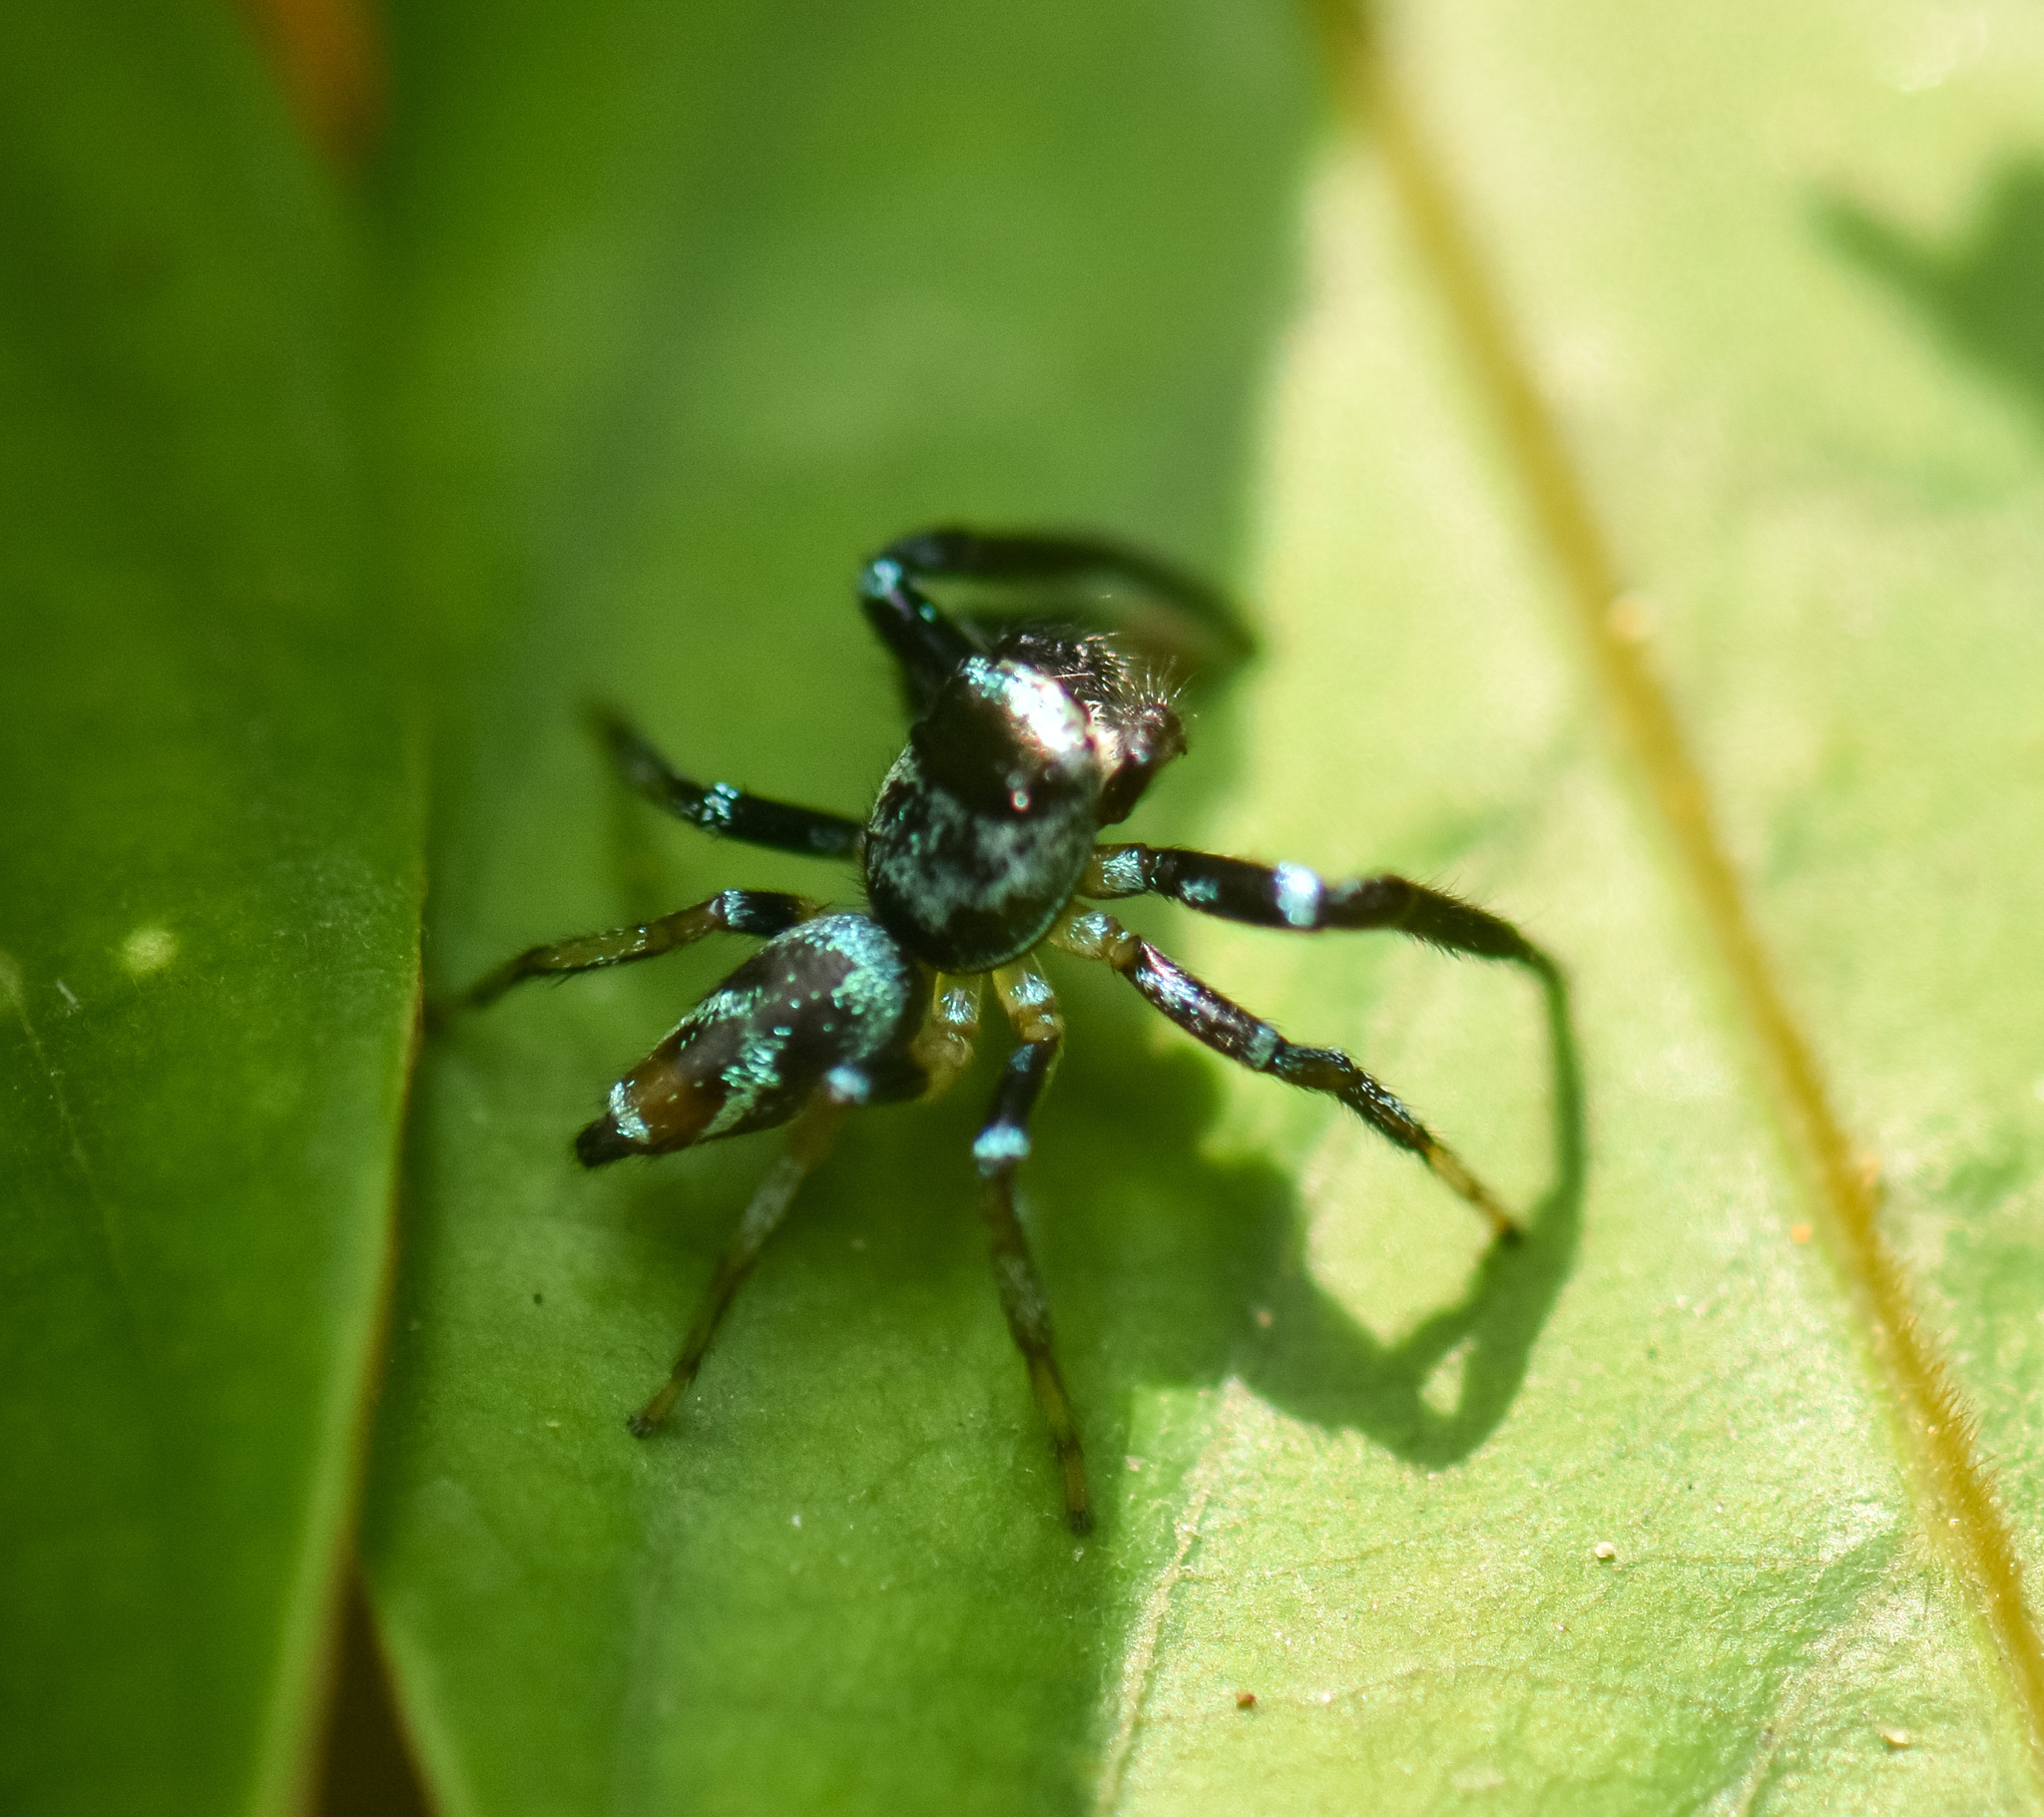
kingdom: Animalia
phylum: Arthropoda
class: Arachnida
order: Araneae
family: Salticidae
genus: Thiania
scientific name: Thiania bhamoensis
